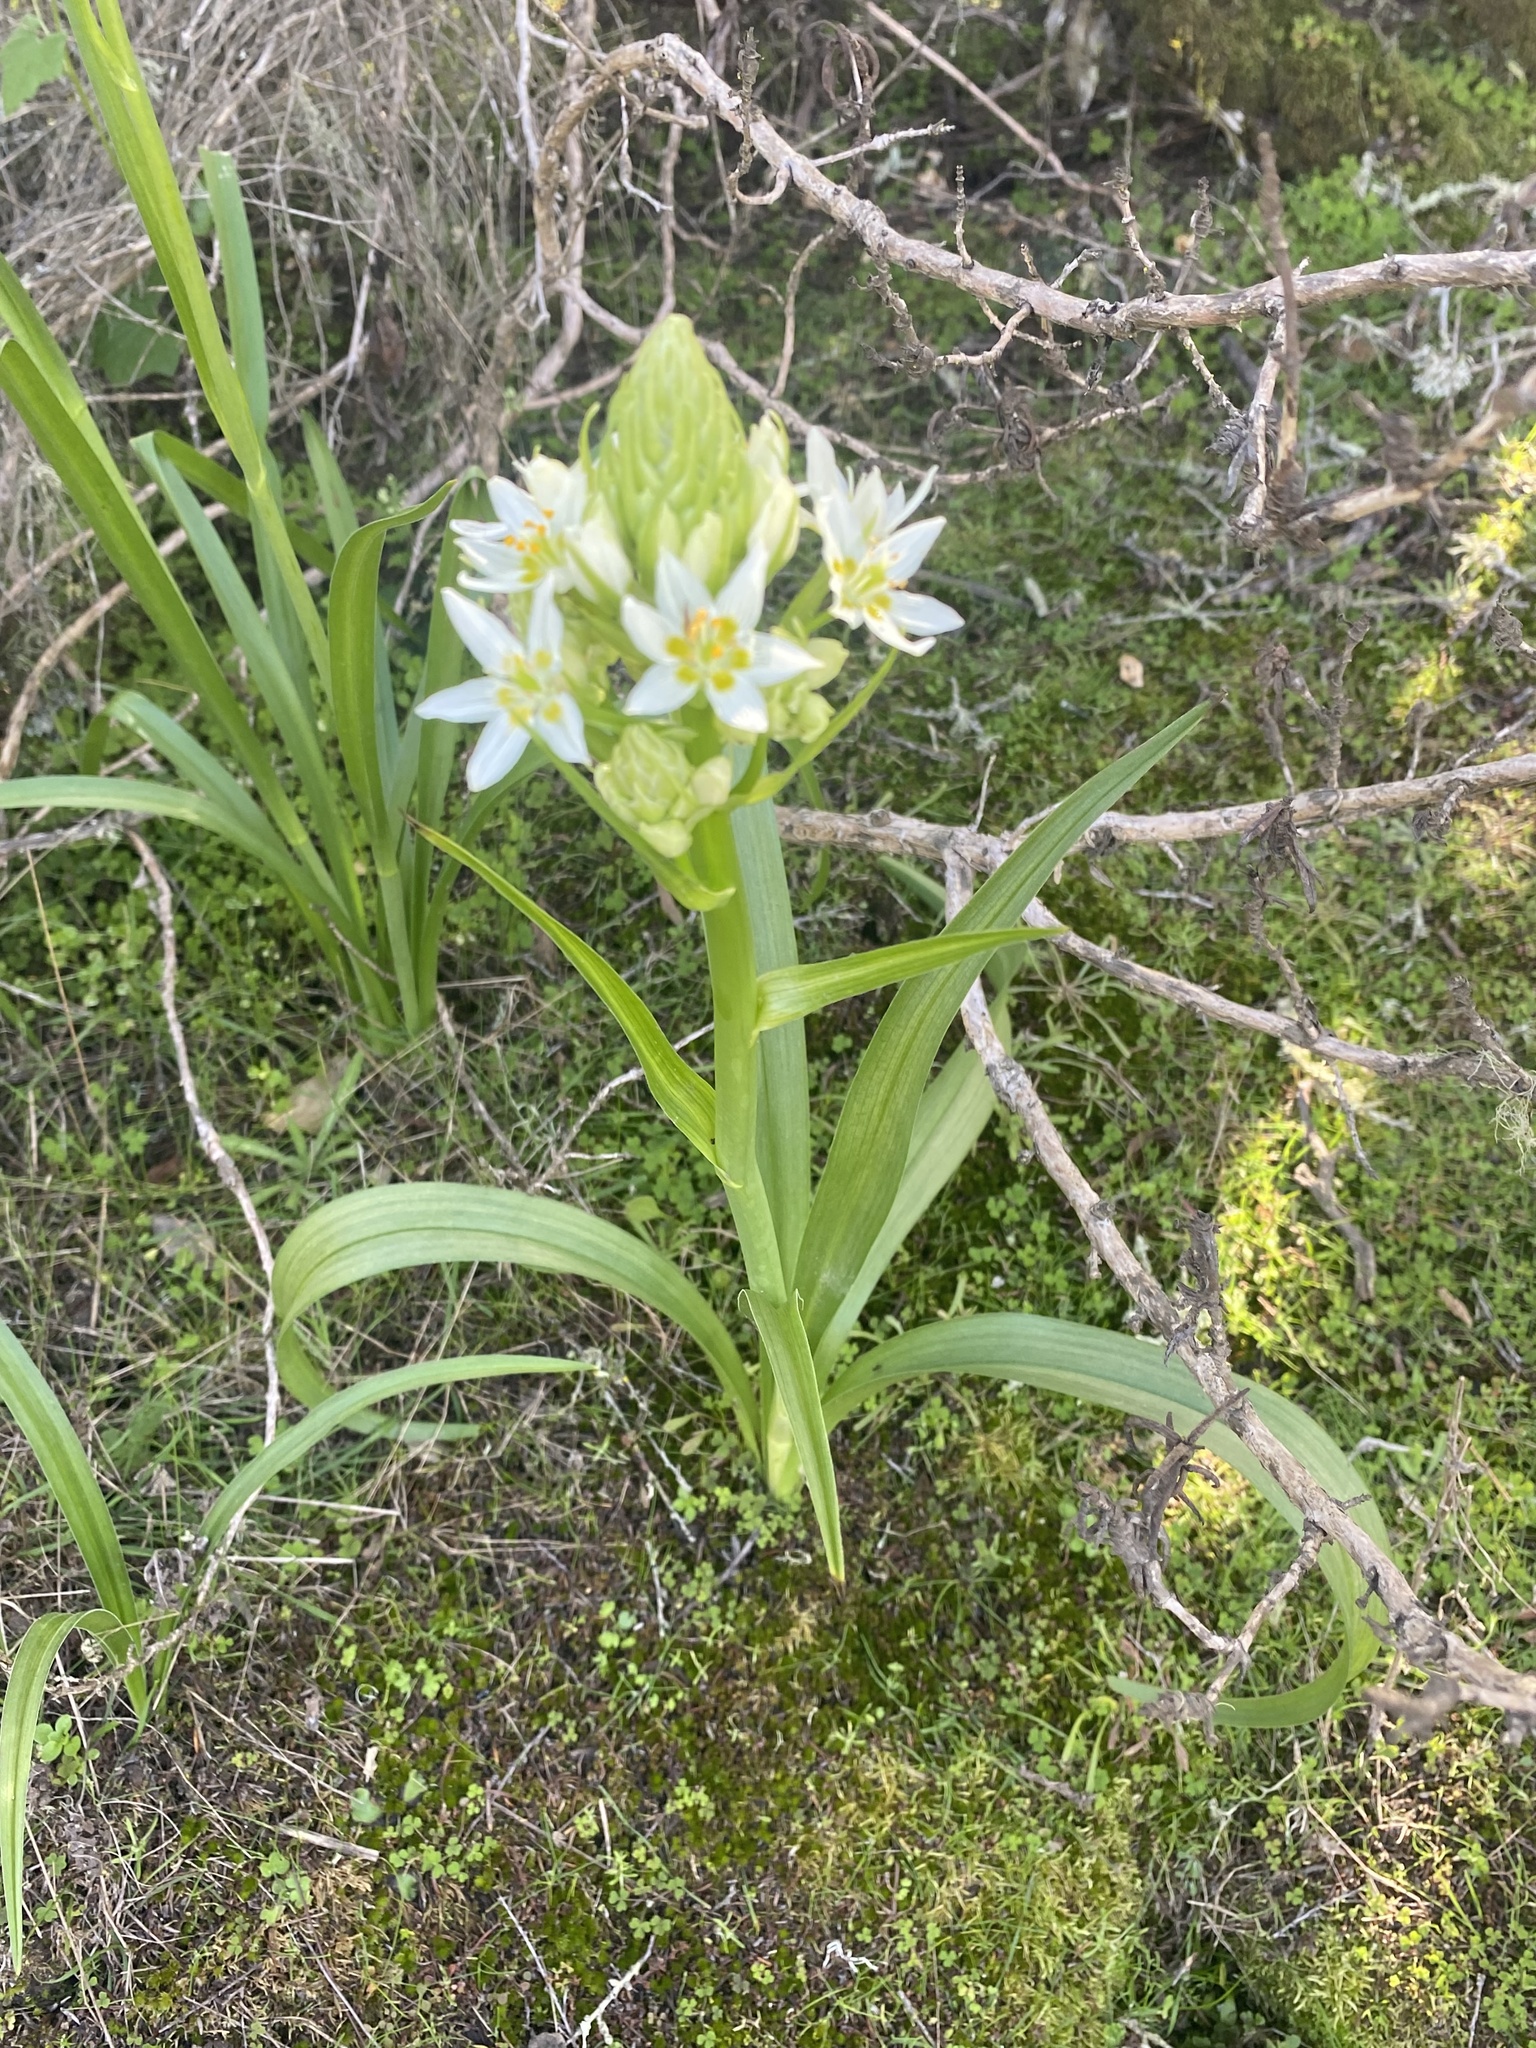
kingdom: Plantae
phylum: Tracheophyta
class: Liliopsida
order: Liliales
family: Melanthiaceae
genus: Toxicoscordion
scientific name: Toxicoscordion fremontii
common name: Fremont's death camas
